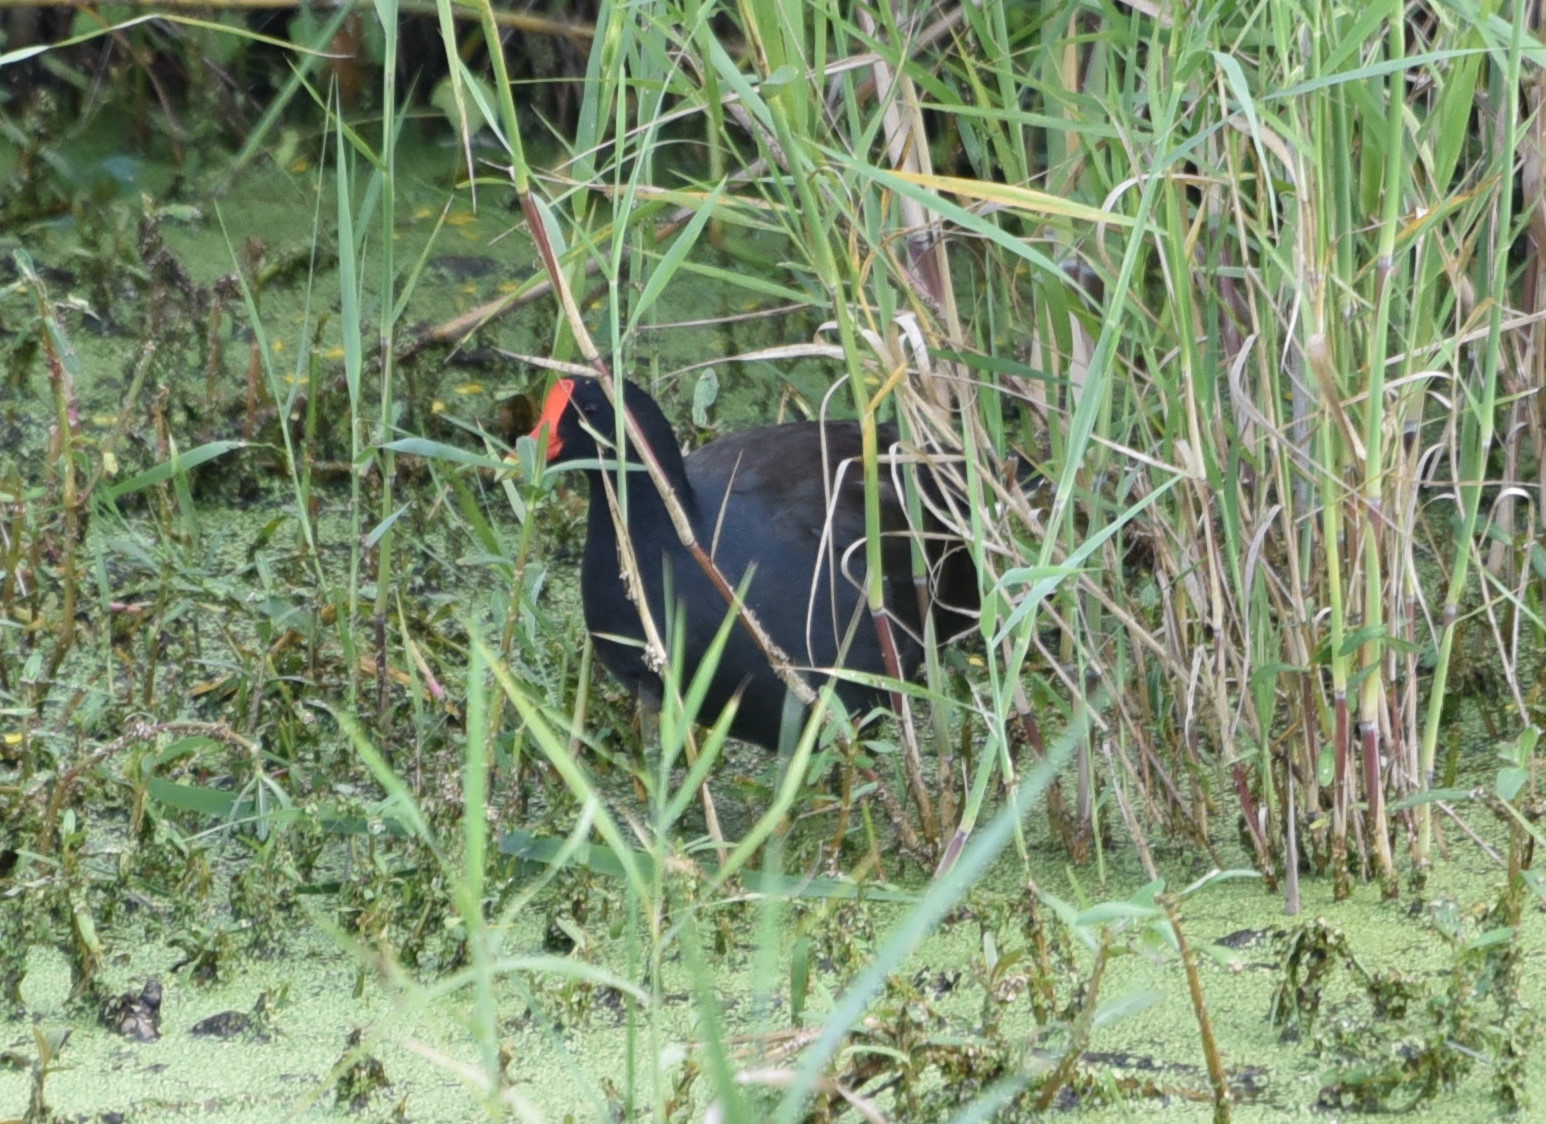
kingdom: Animalia
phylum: Chordata
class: Aves
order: Gruiformes
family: Rallidae
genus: Gallinula
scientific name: Gallinula chloropus
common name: Common moorhen
